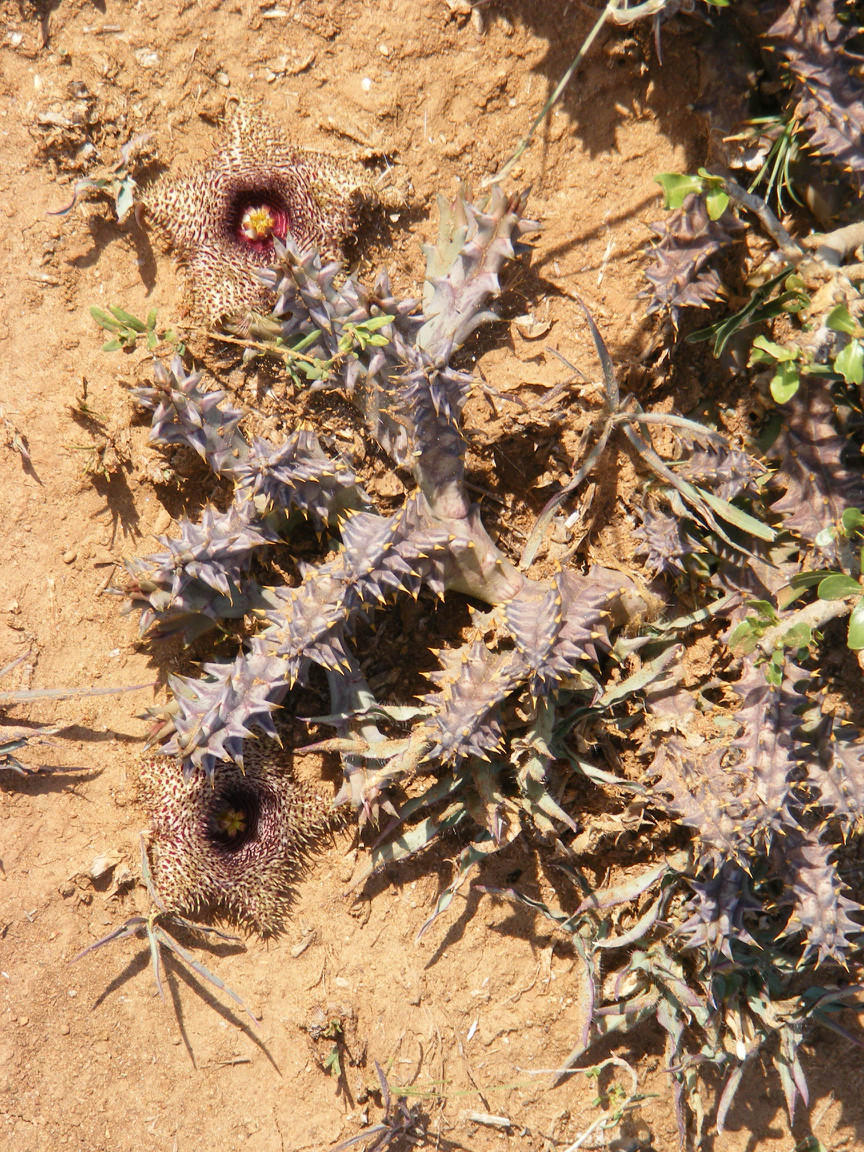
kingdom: Plantae
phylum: Tracheophyta
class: Magnoliopsida
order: Gentianales
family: Apocynaceae
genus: Ceropegia
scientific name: Ceropegia hystrix
